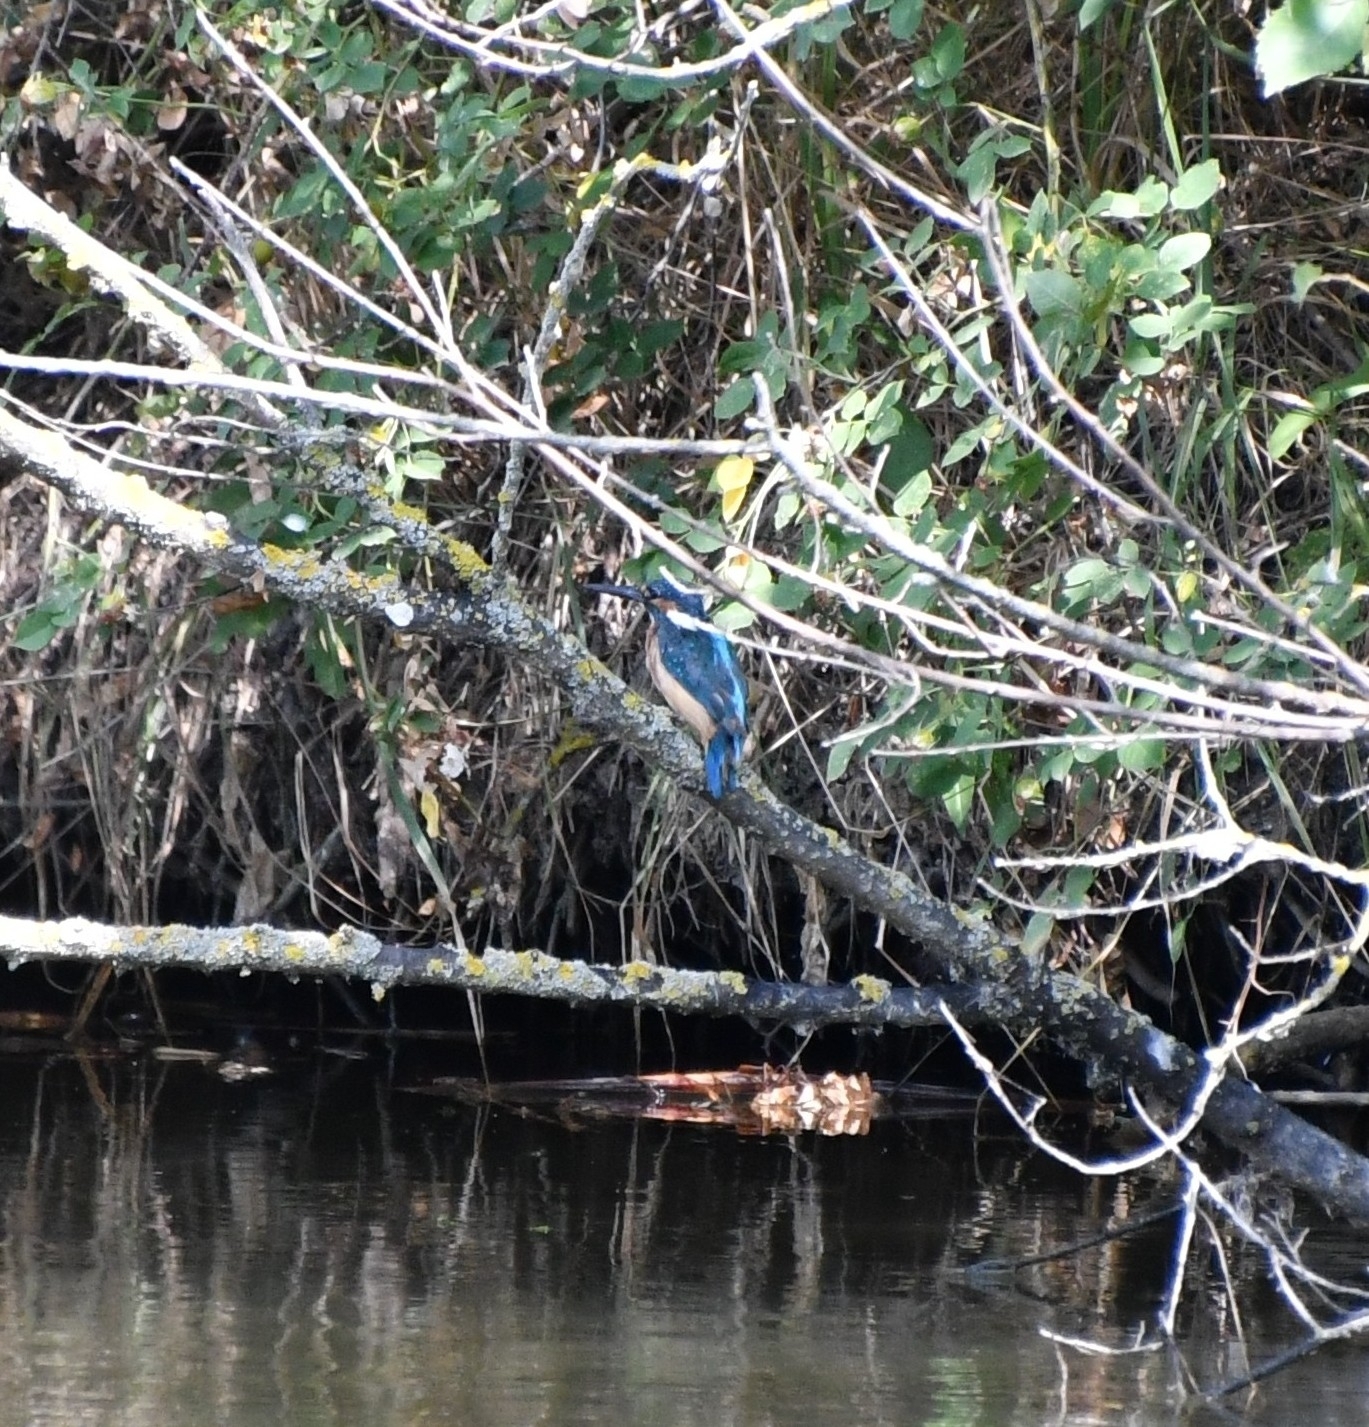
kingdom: Animalia
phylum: Chordata
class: Aves
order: Coraciiformes
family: Alcedinidae
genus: Alcedo
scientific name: Alcedo atthis
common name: Common kingfisher
